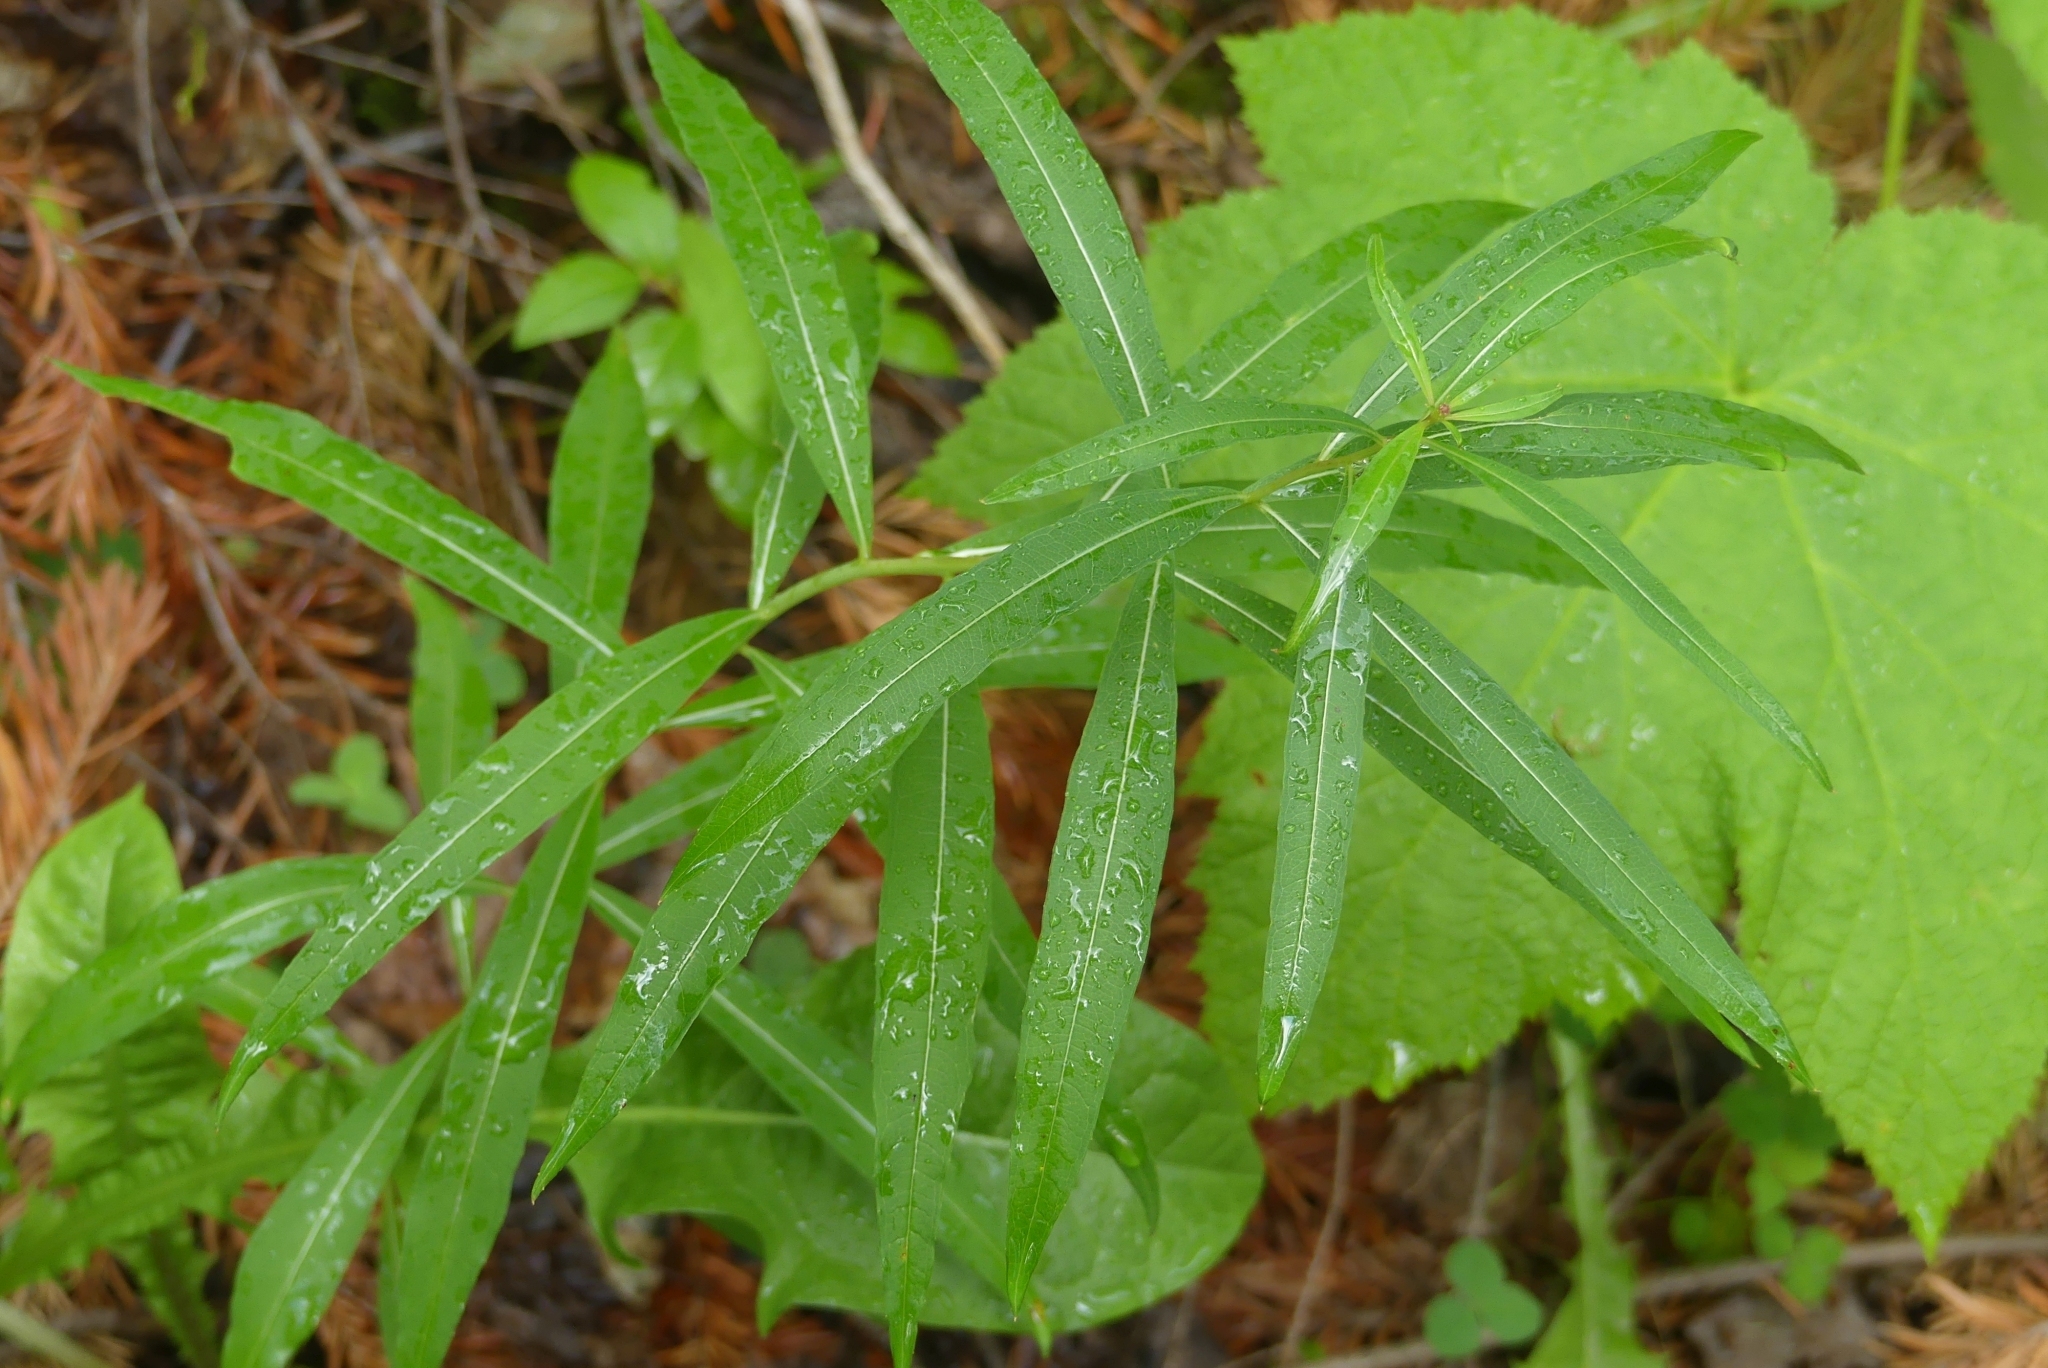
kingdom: Plantae
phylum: Tracheophyta
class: Magnoliopsida
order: Myrtales
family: Onagraceae
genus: Chamaenerion
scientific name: Chamaenerion angustifolium
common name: Fireweed
